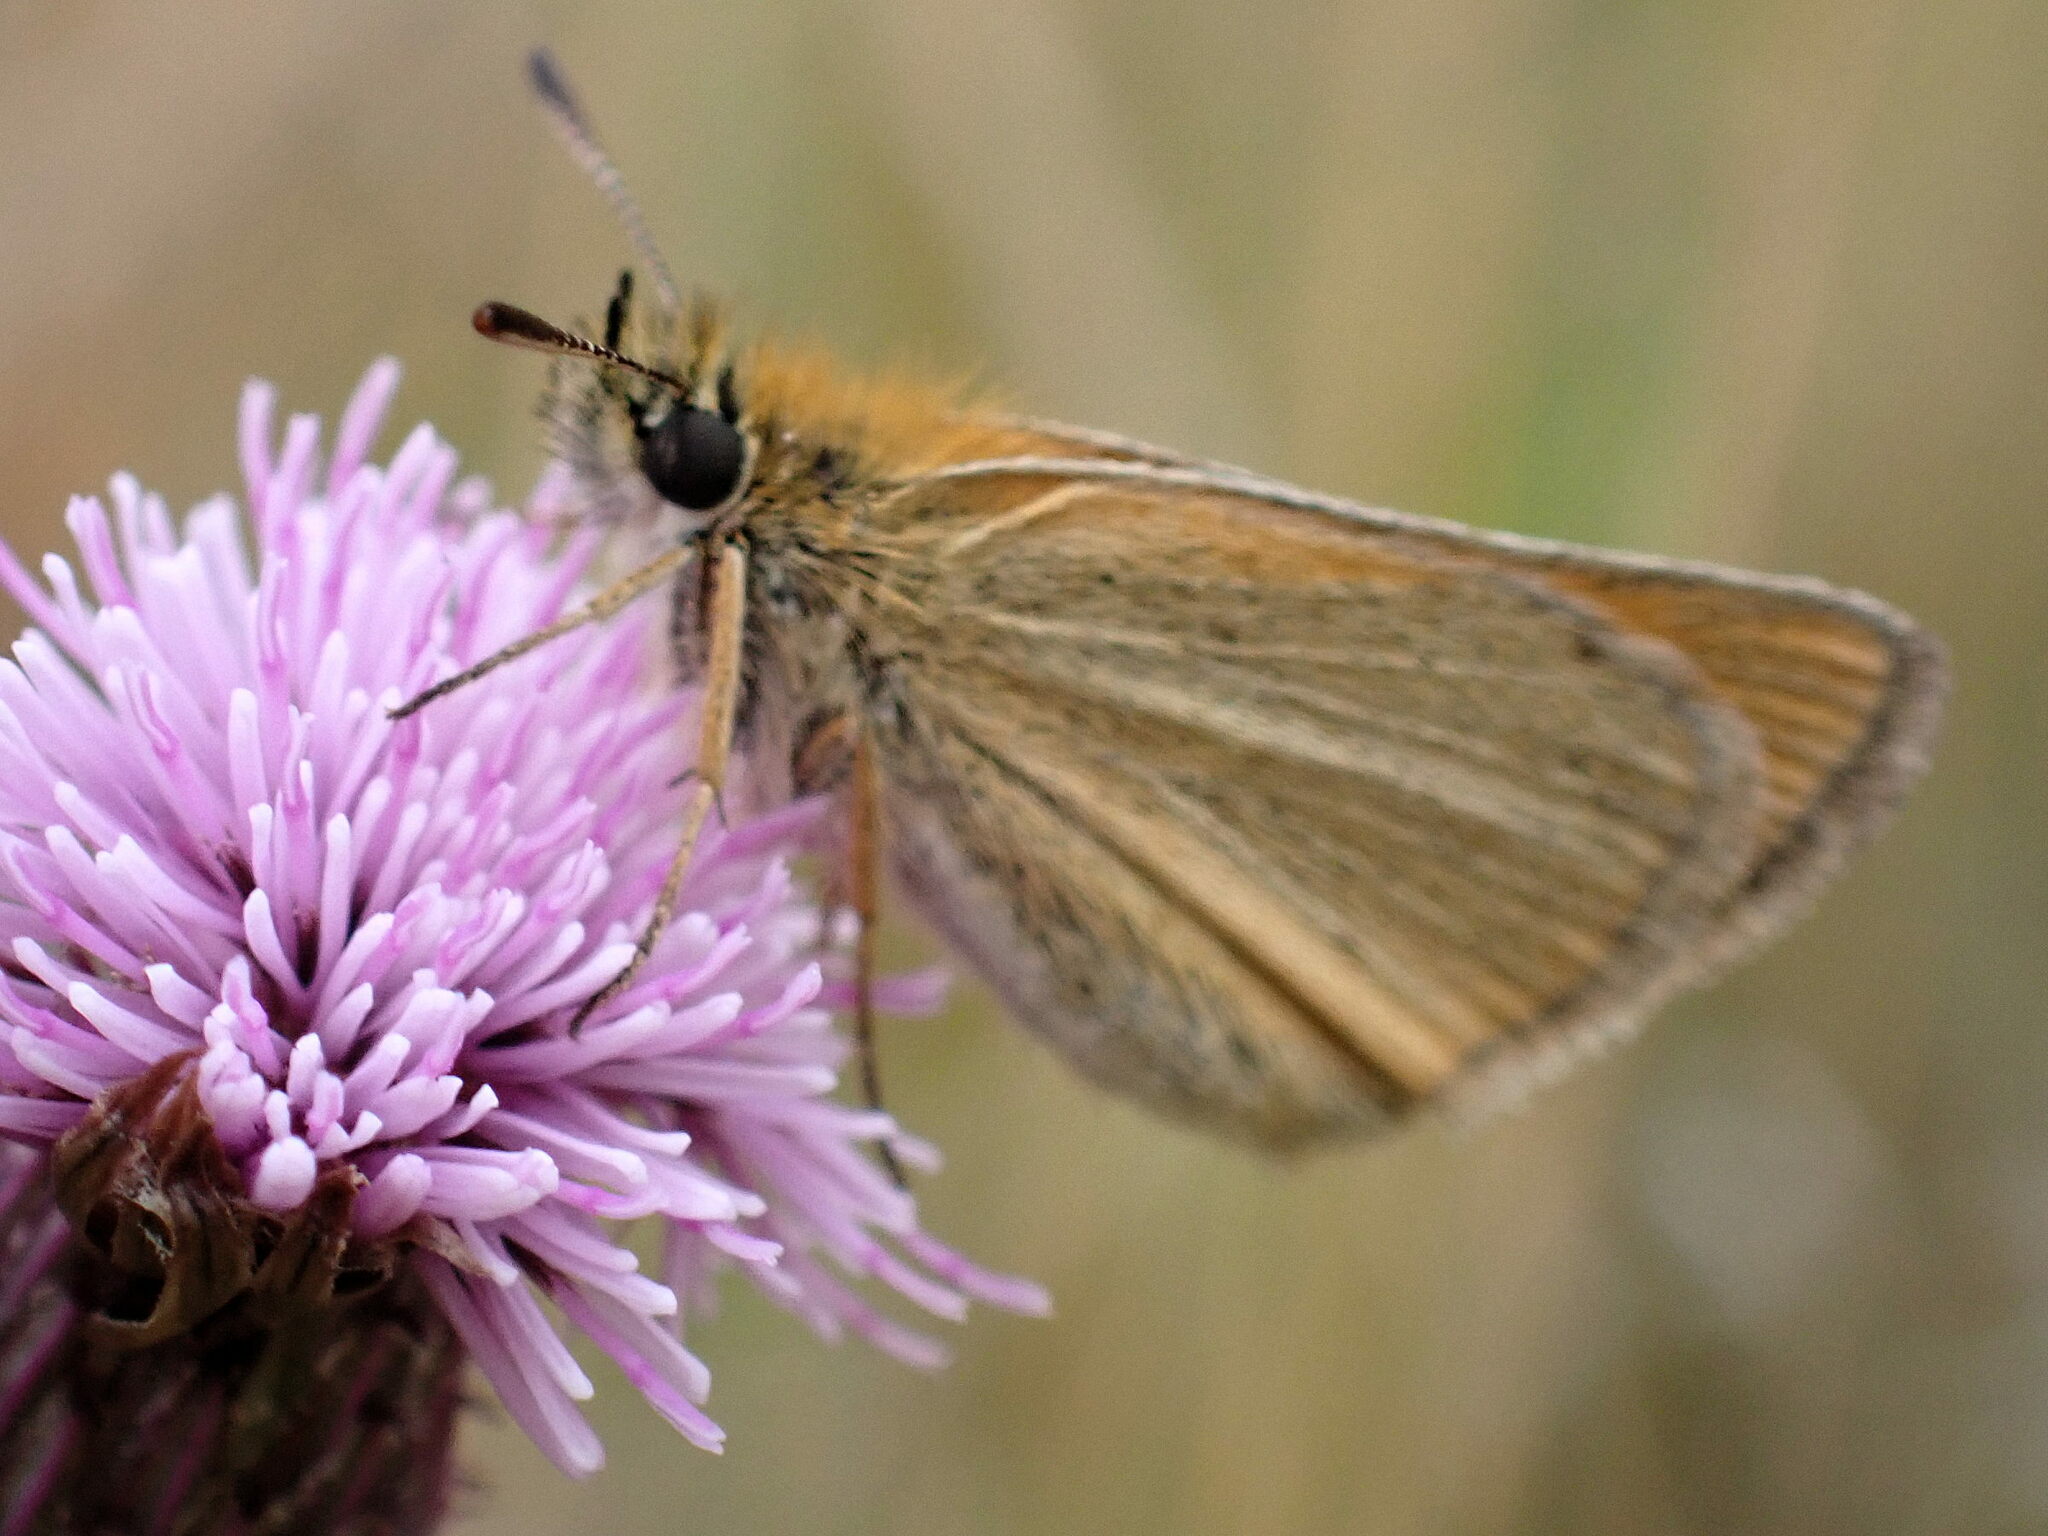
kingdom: Animalia
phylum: Arthropoda
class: Insecta
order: Lepidoptera
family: Hesperiidae
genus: Thymelicus
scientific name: Thymelicus lineola
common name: Essex skipper
